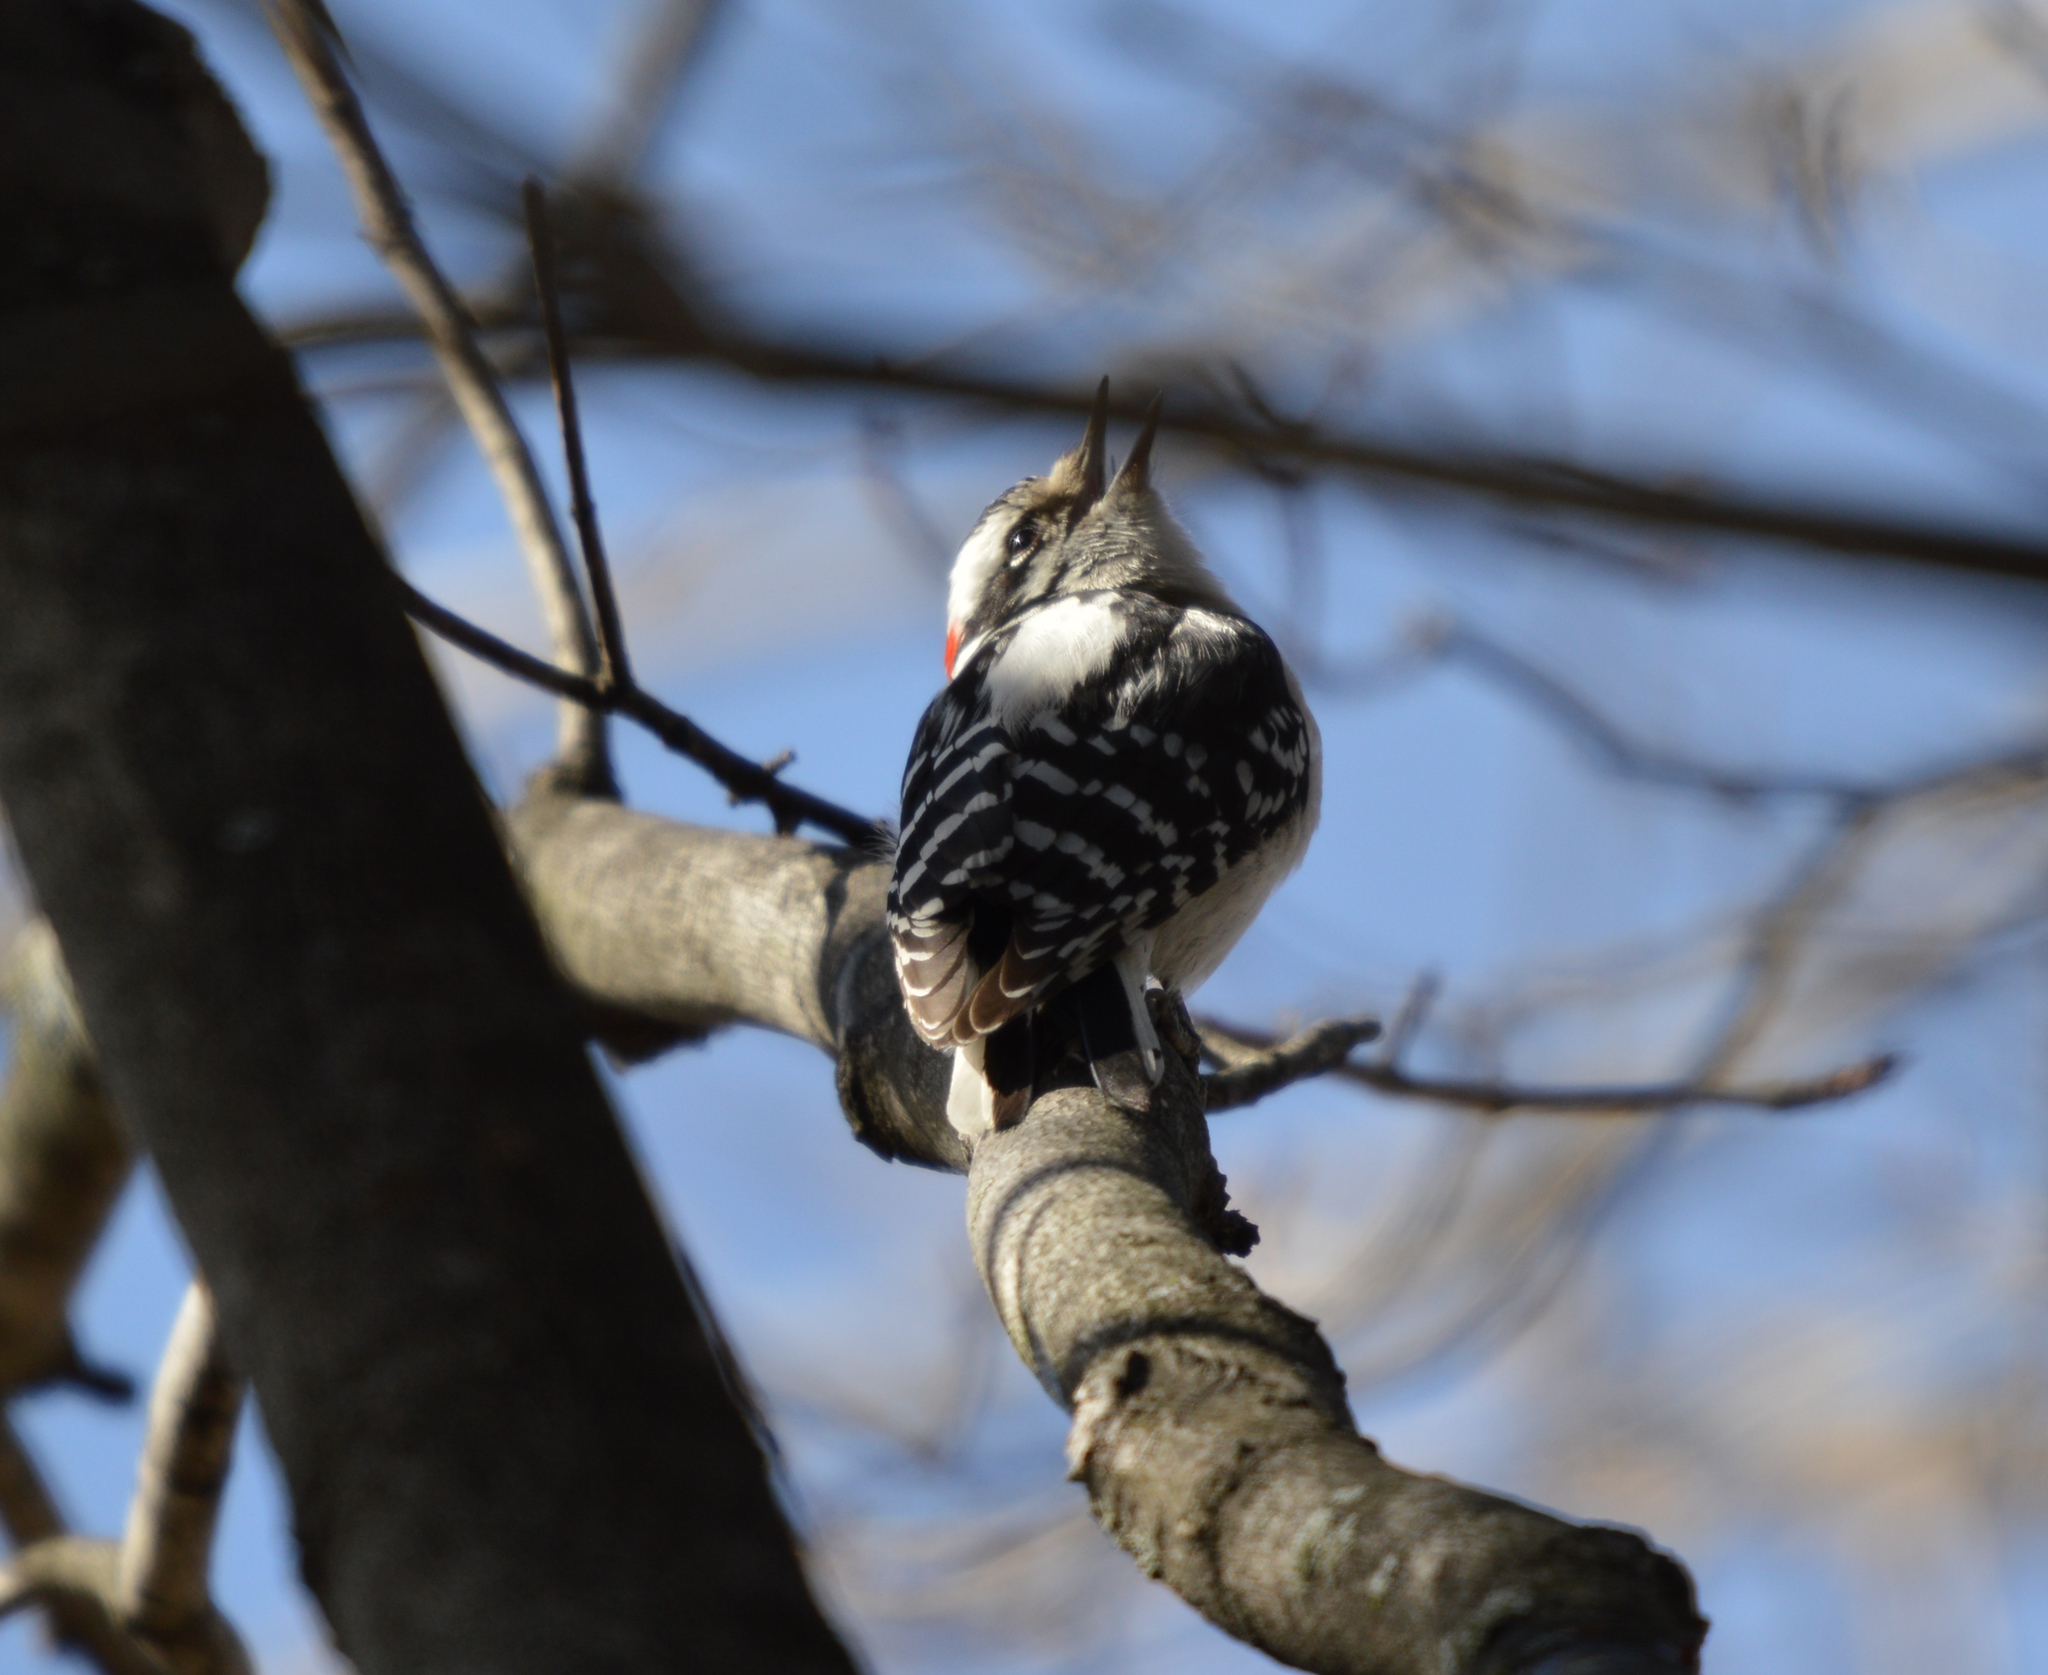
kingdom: Animalia
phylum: Chordata
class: Aves
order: Piciformes
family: Picidae
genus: Dryobates
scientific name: Dryobates pubescens
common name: Downy woodpecker
